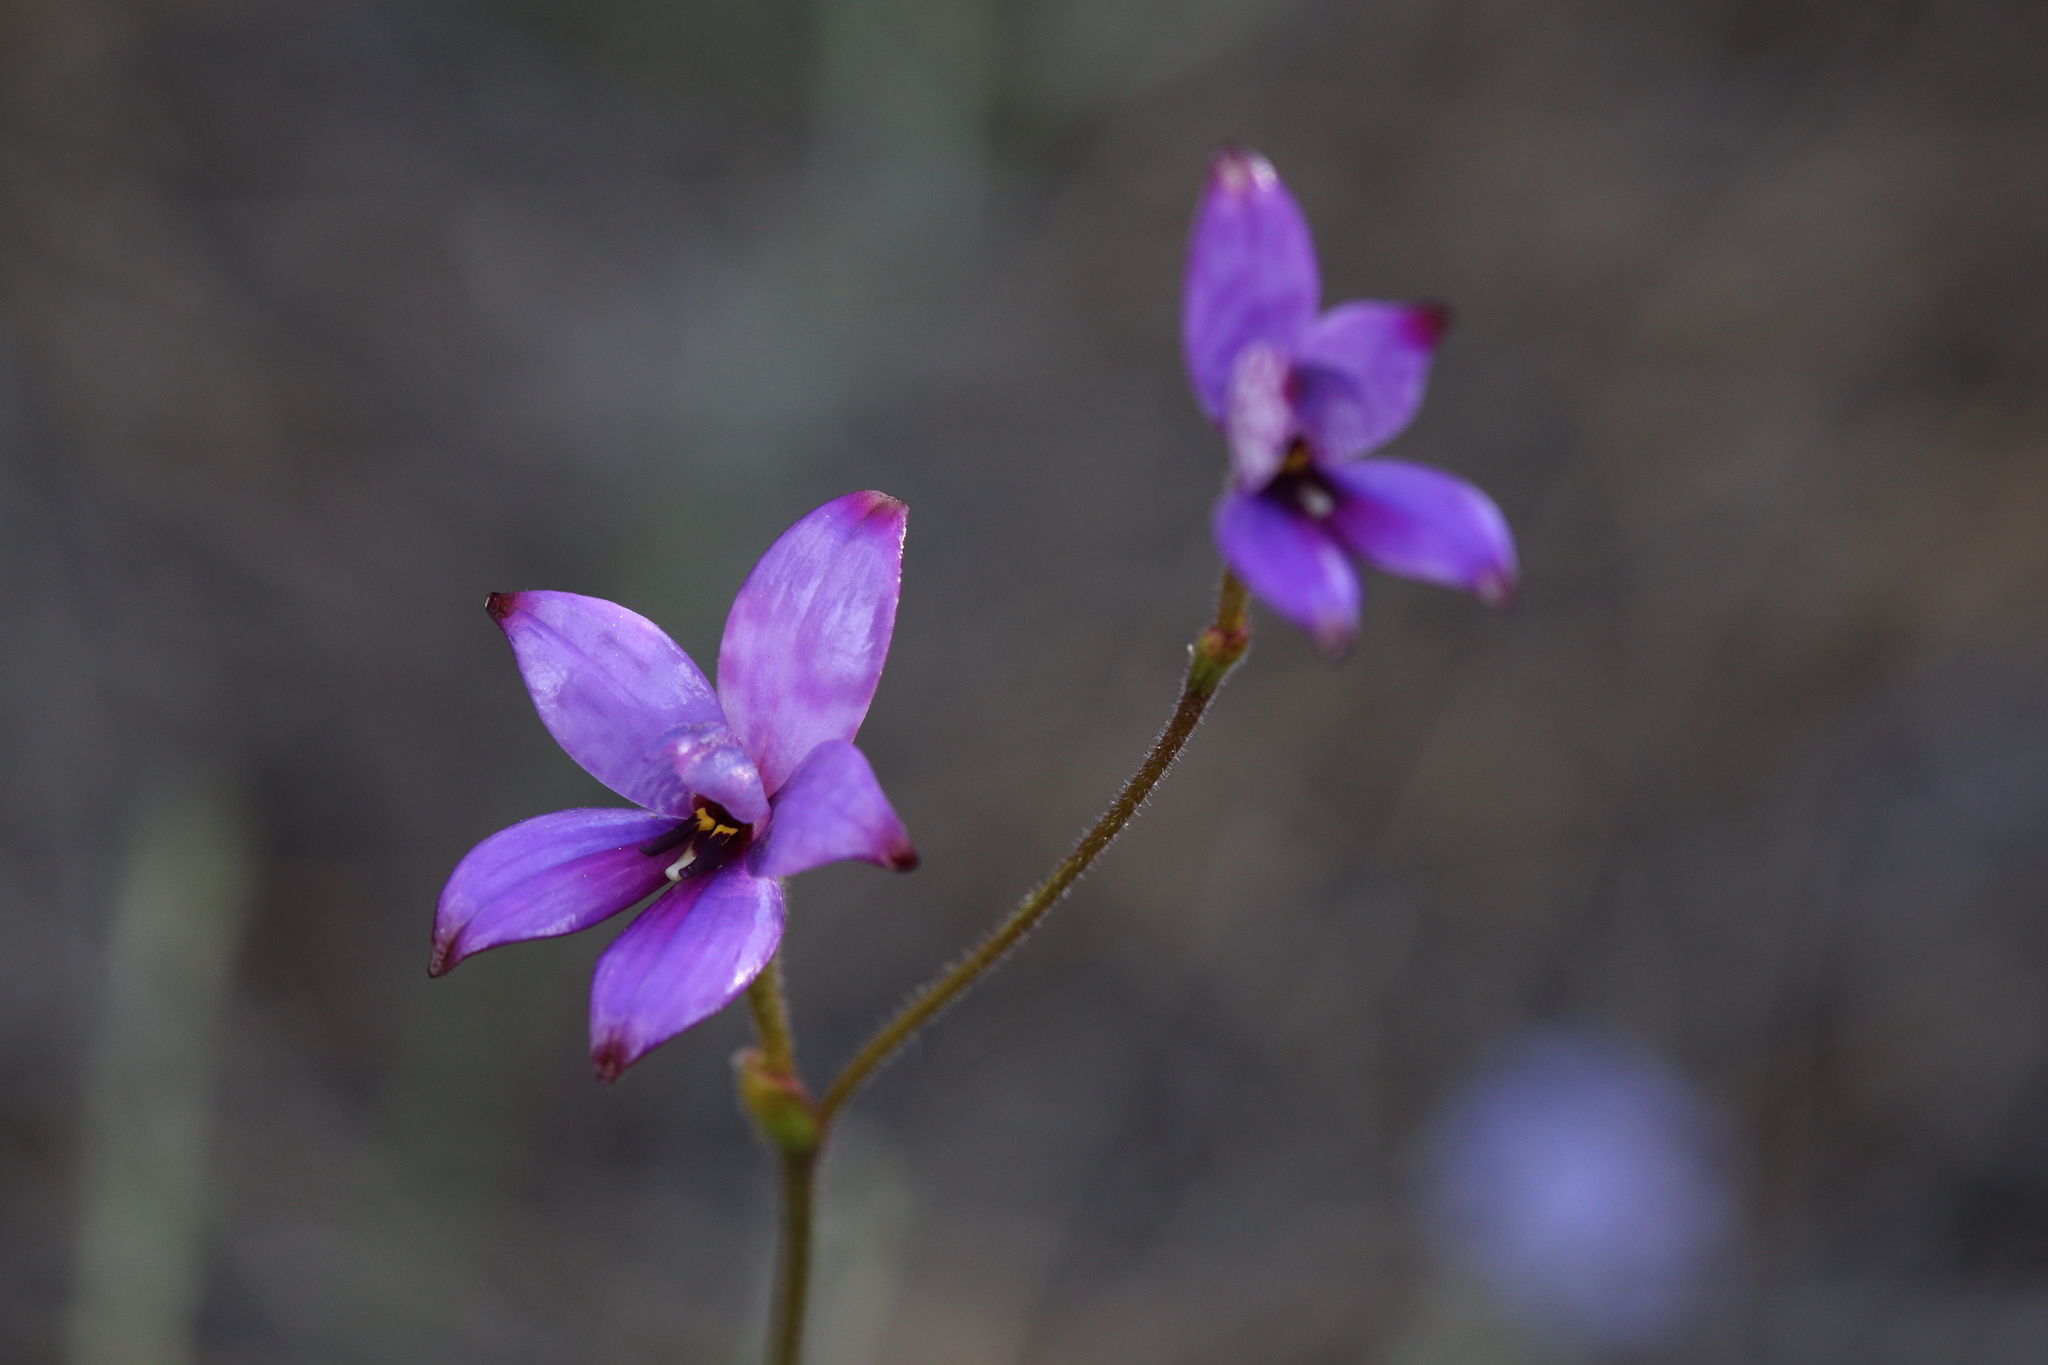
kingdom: Plantae
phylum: Tracheophyta
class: Liliopsida
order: Asparagales
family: Orchidaceae
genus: Caladenia
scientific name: Caladenia brunonis
